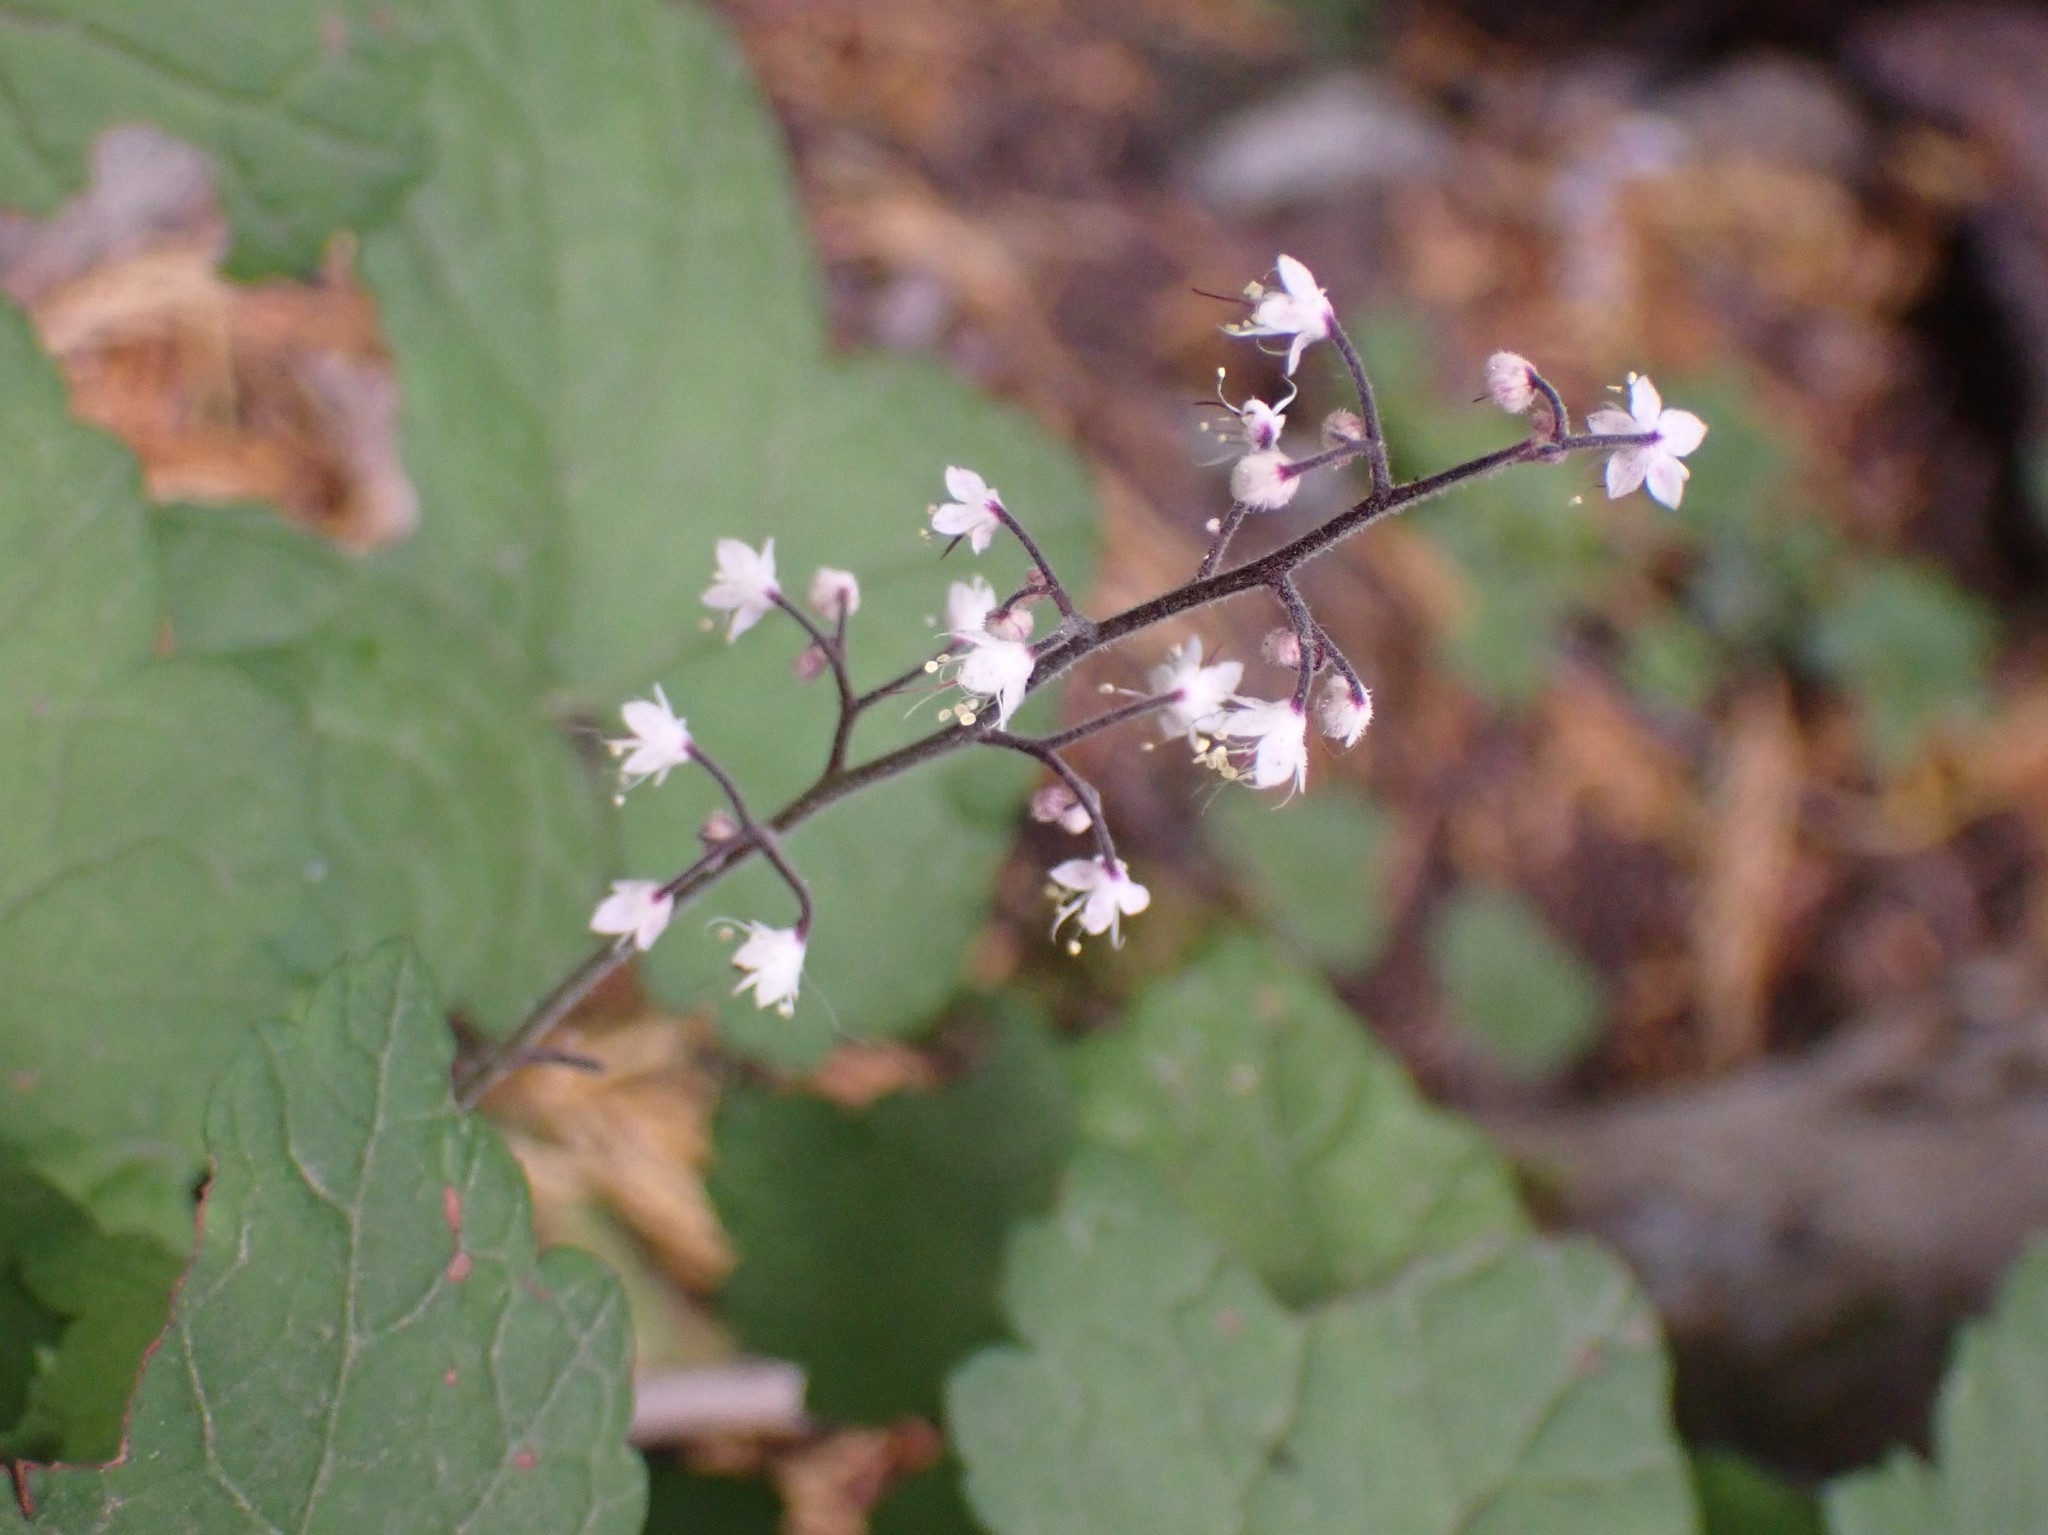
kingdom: Plantae
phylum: Tracheophyta
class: Magnoliopsida
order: Saxifragales
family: Saxifragaceae
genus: Tiarella
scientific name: Tiarella trifoliata
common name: Sugar-scoop
